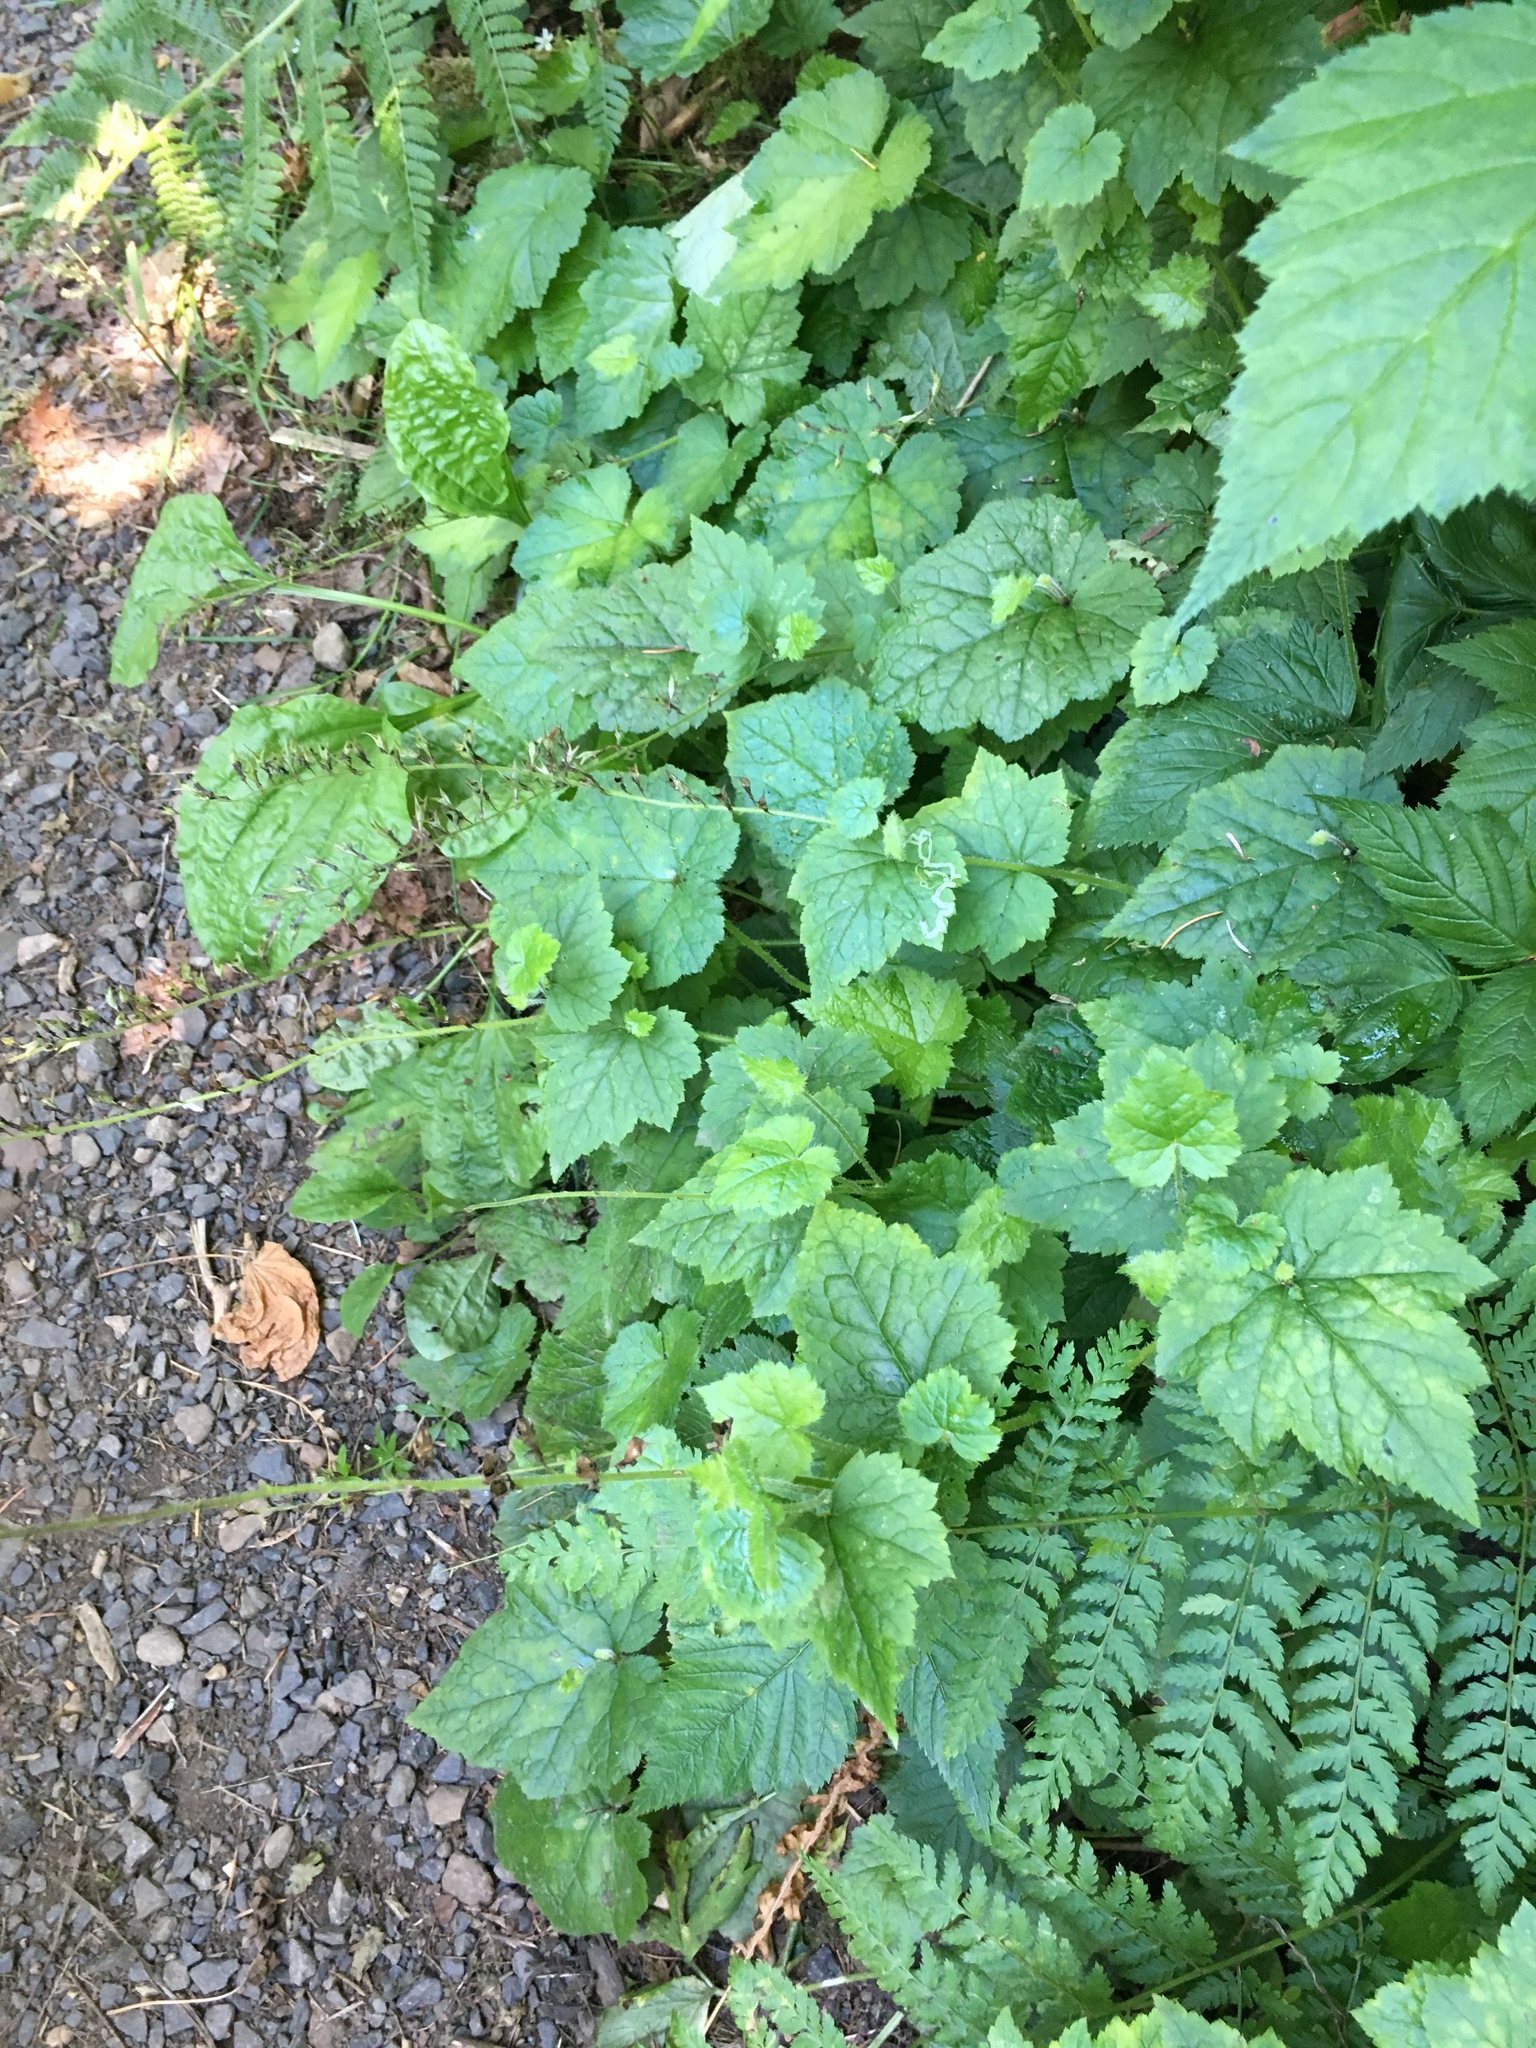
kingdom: Plantae
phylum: Tracheophyta
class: Magnoliopsida
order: Saxifragales
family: Saxifragaceae
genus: Tolmiea
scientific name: Tolmiea menziesii
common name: Pick-a-back-plant
